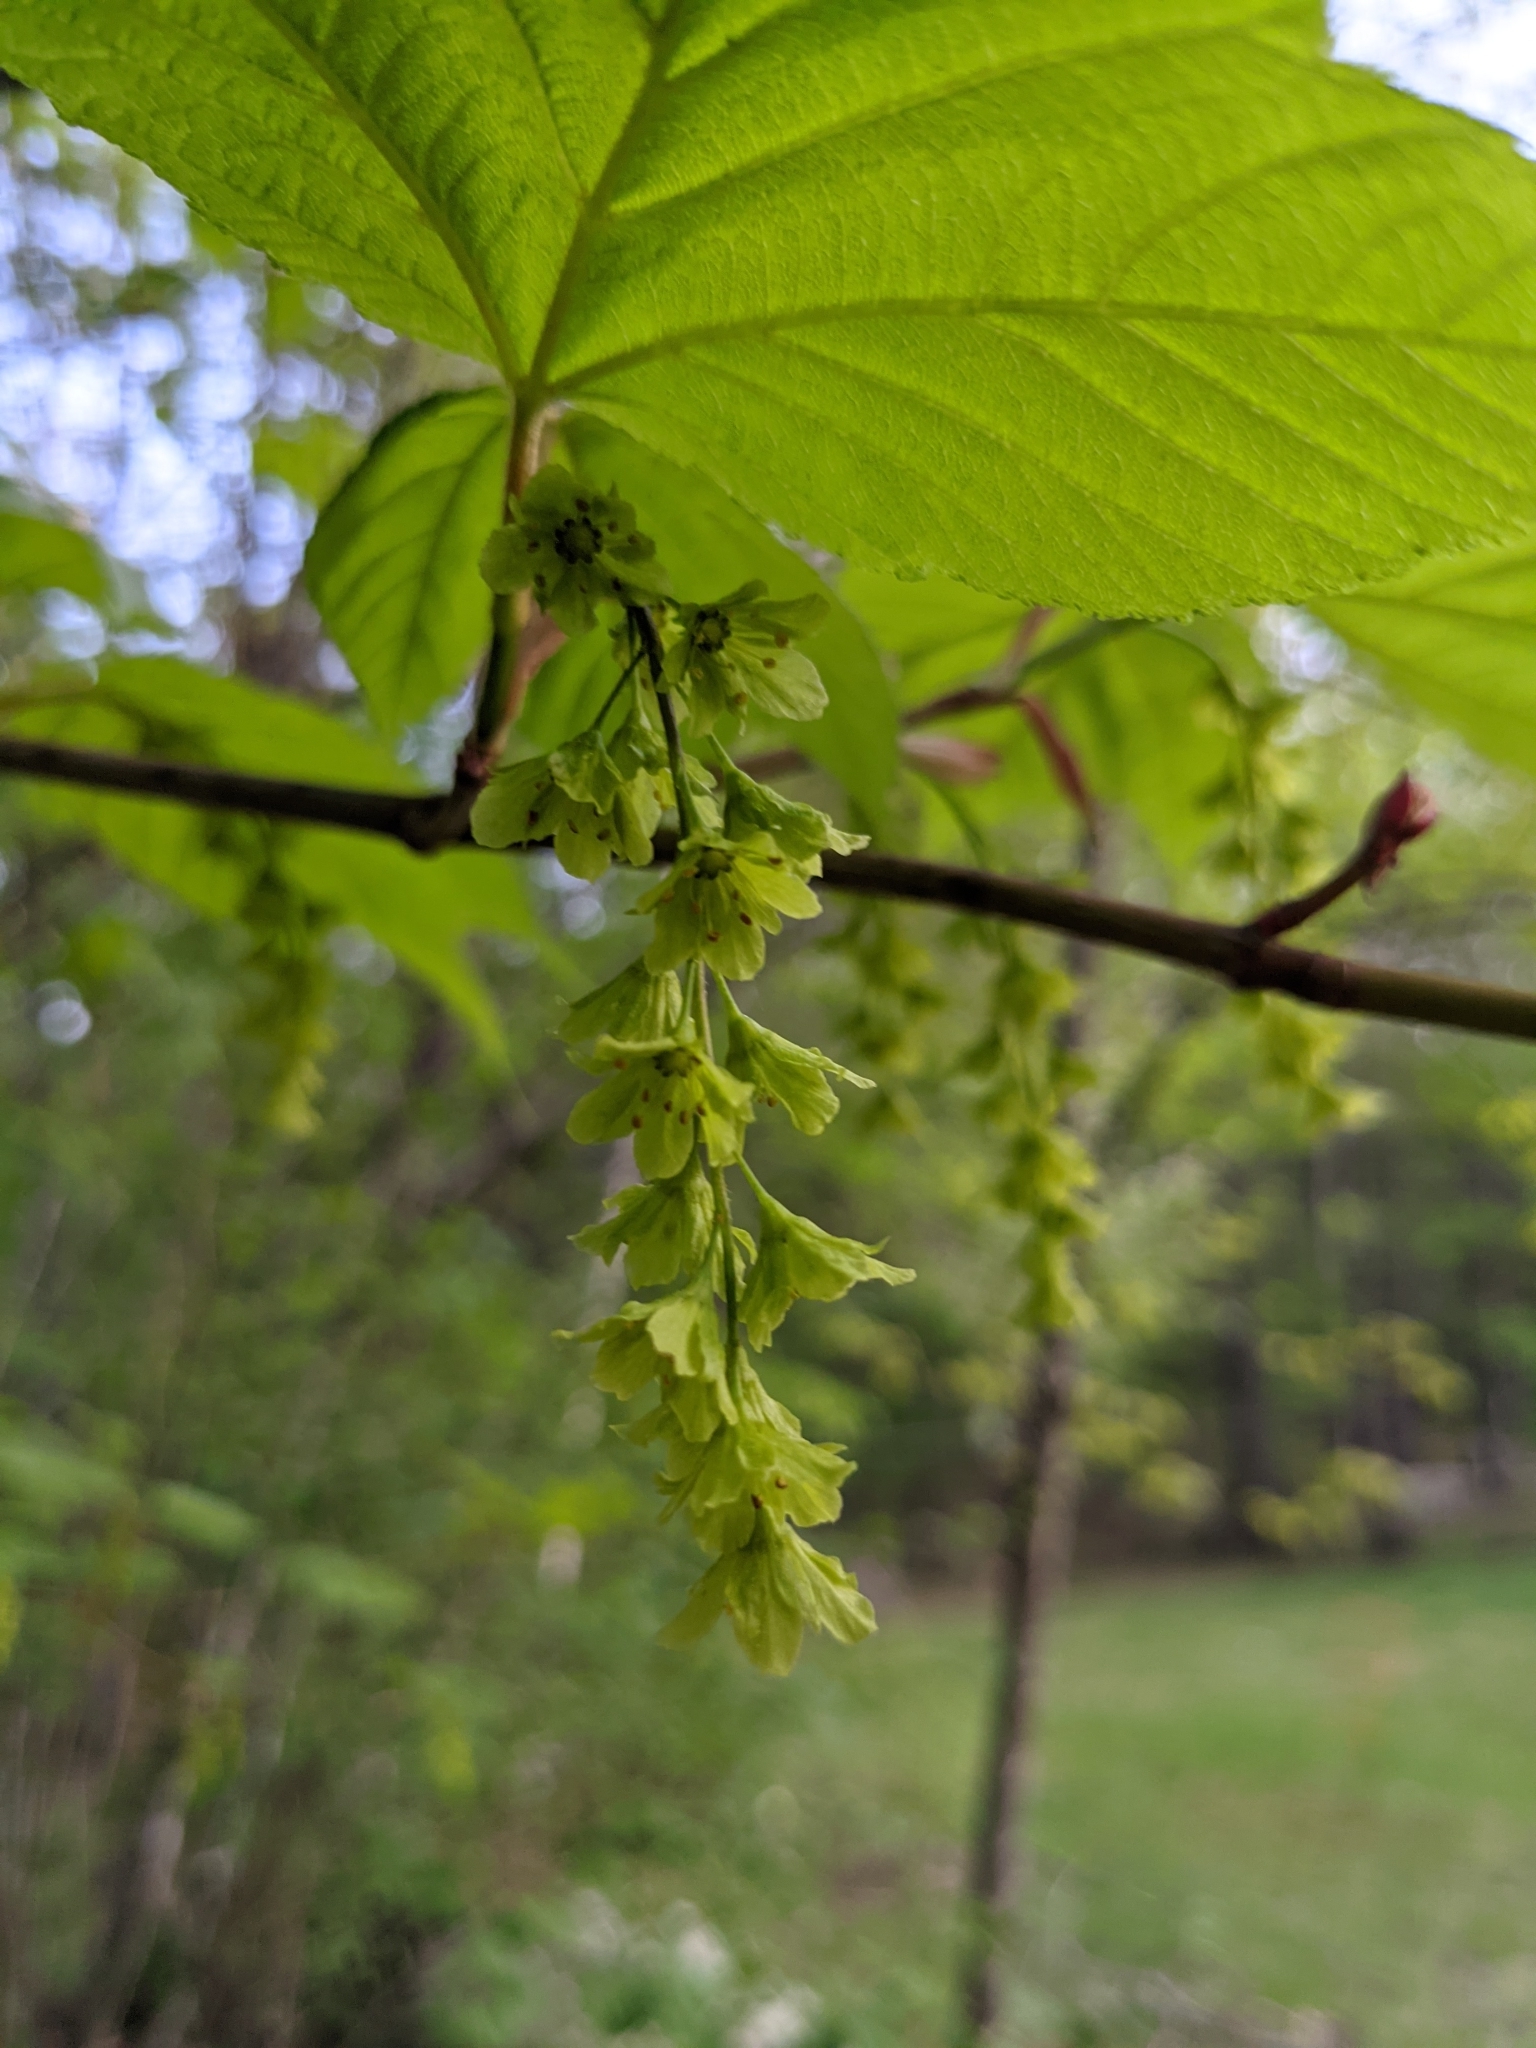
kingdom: Plantae
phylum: Tracheophyta
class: Magnoliopsida
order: Sapindales
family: Sapindaceae
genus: Acer
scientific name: Acer pensylvanicum
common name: Moosewood
